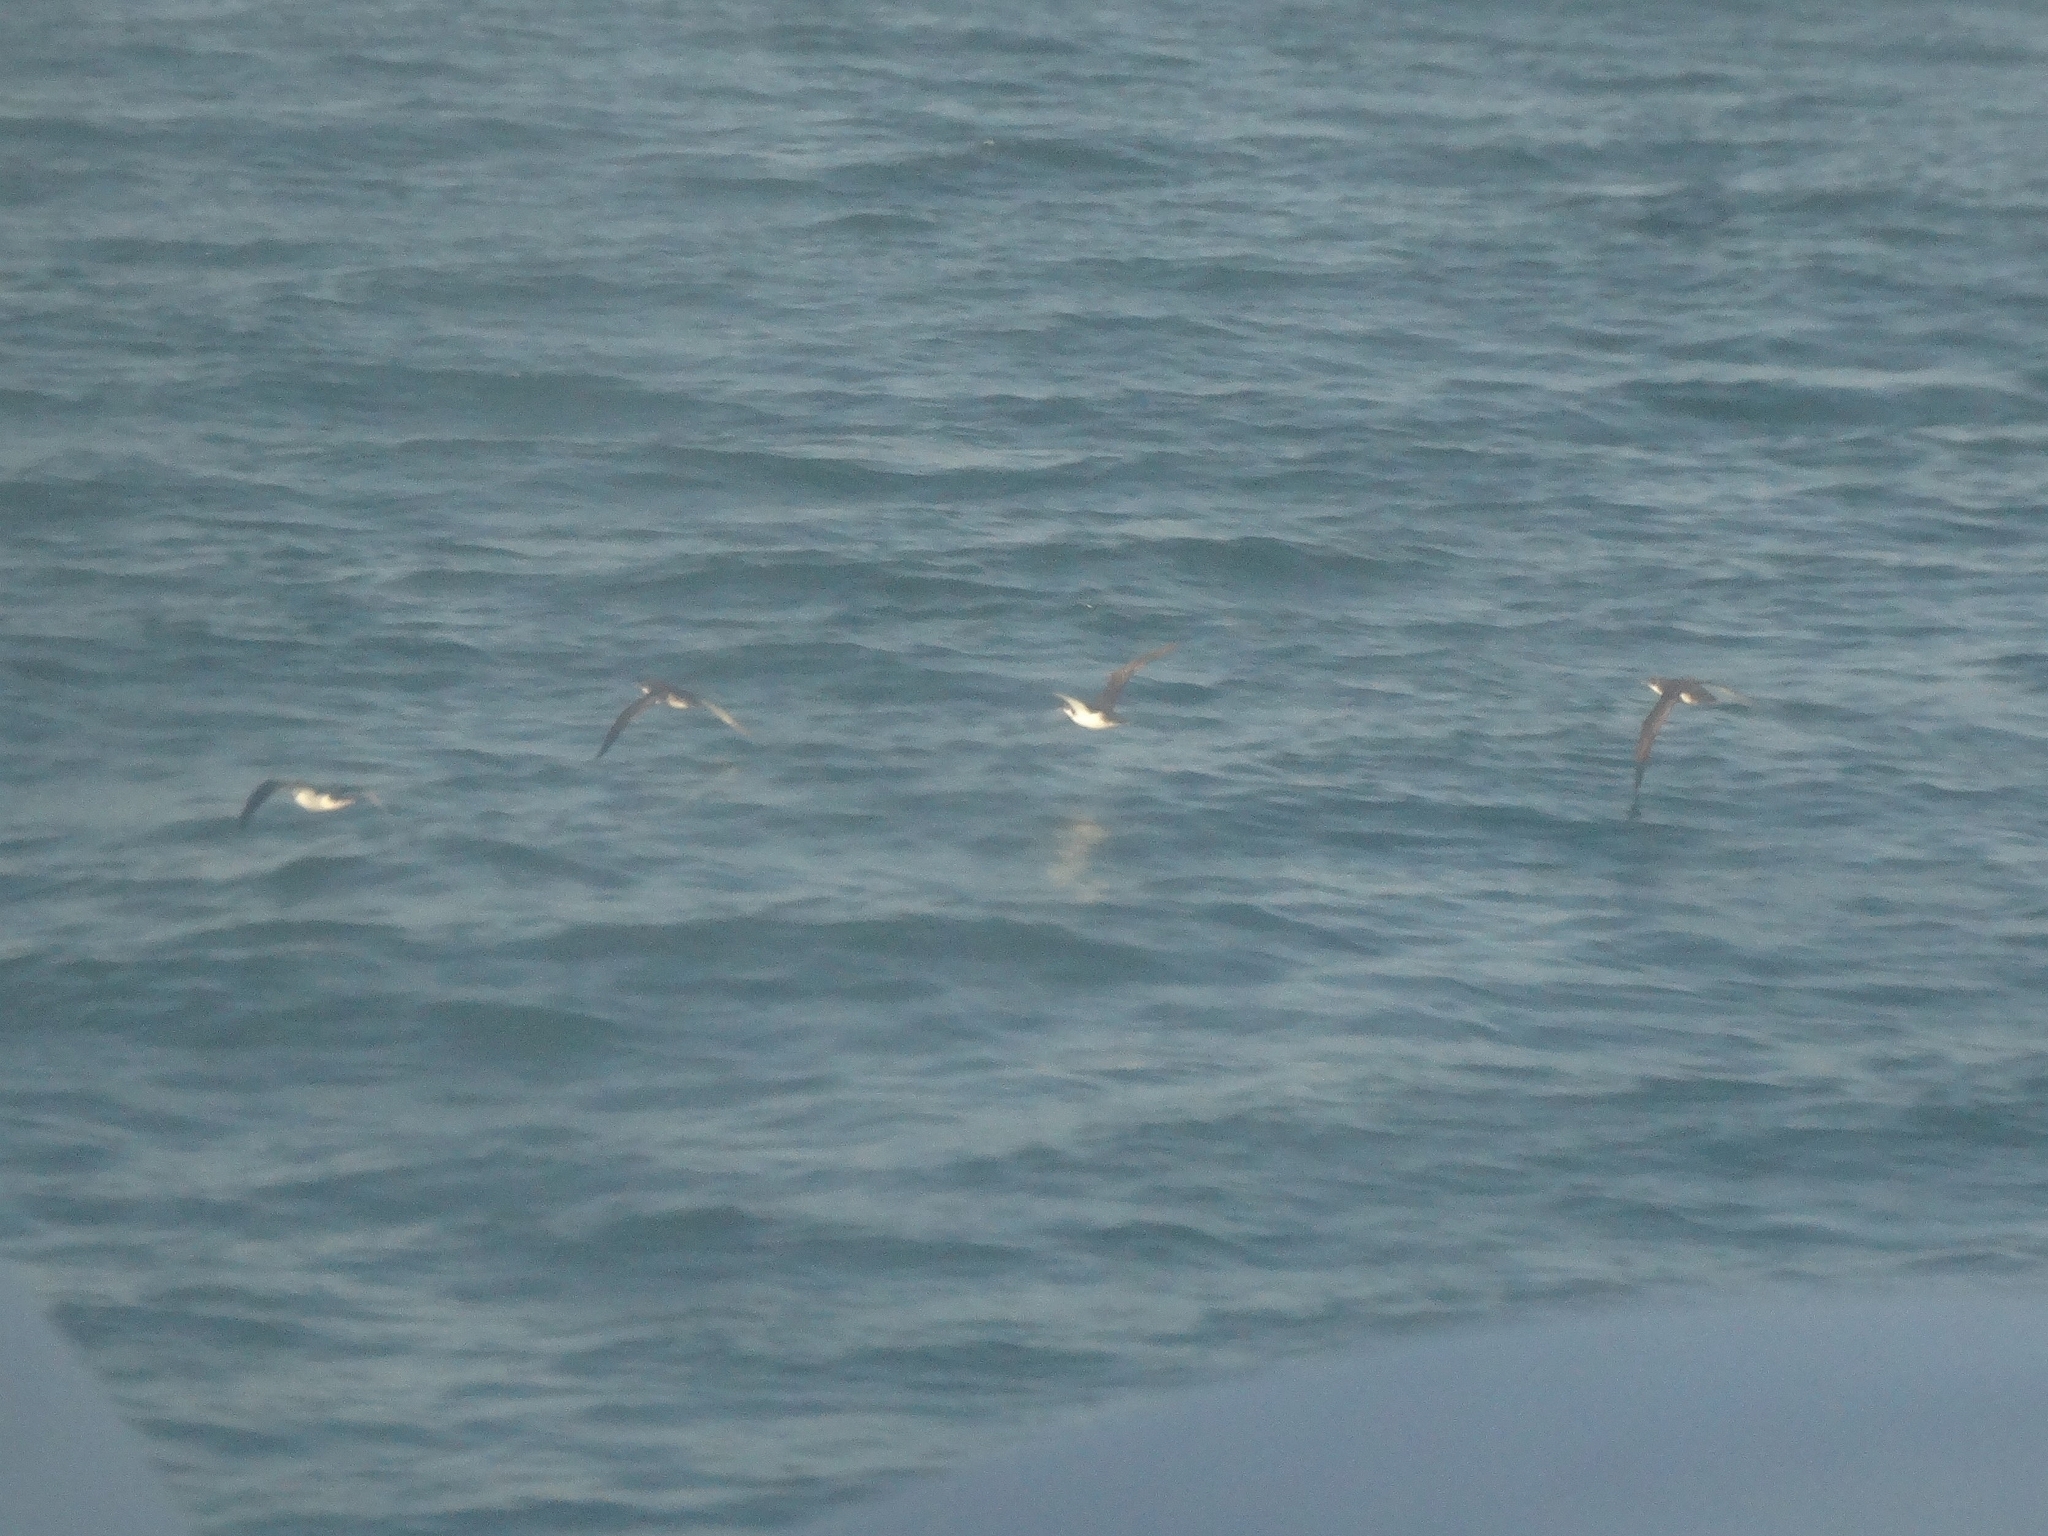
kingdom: Animalia
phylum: Chordata
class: Aves
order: Procellariiformes
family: Procellariidae
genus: Puffinus
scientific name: Puffinus yelkouan
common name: Yelkouan shearwater
